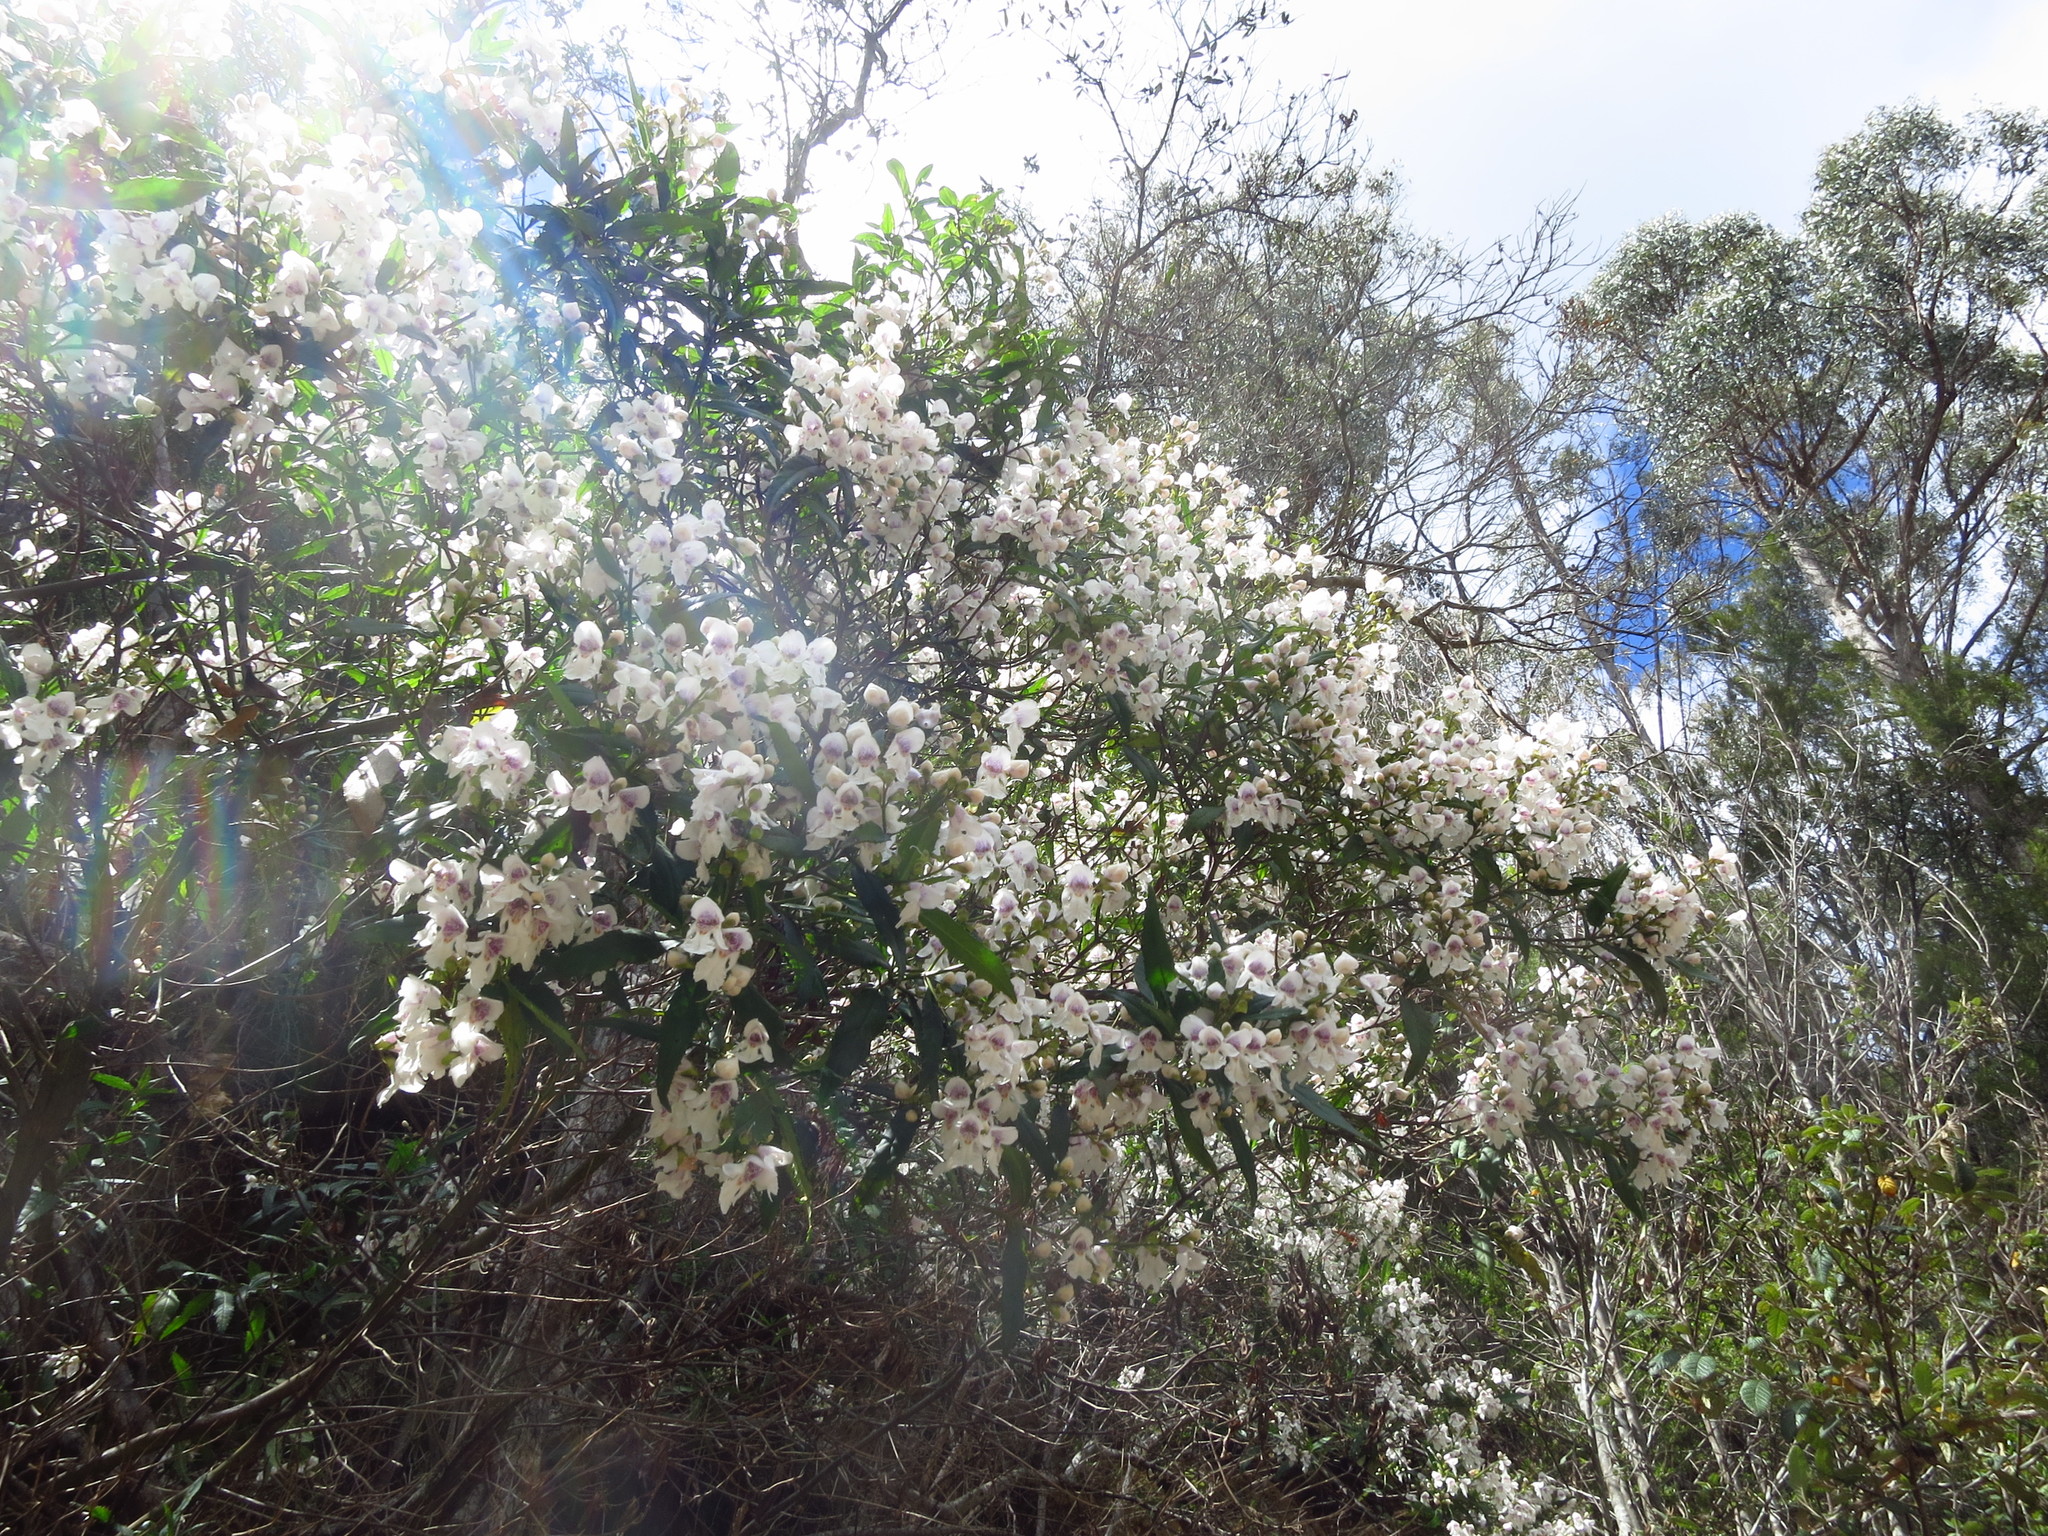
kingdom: Plantae
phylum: Tracheophyta
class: Magnoliopsida
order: Lamiales
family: Lamiaceae
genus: Prostanthera
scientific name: Prostanthera lasianthos
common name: Mountain-lilac
